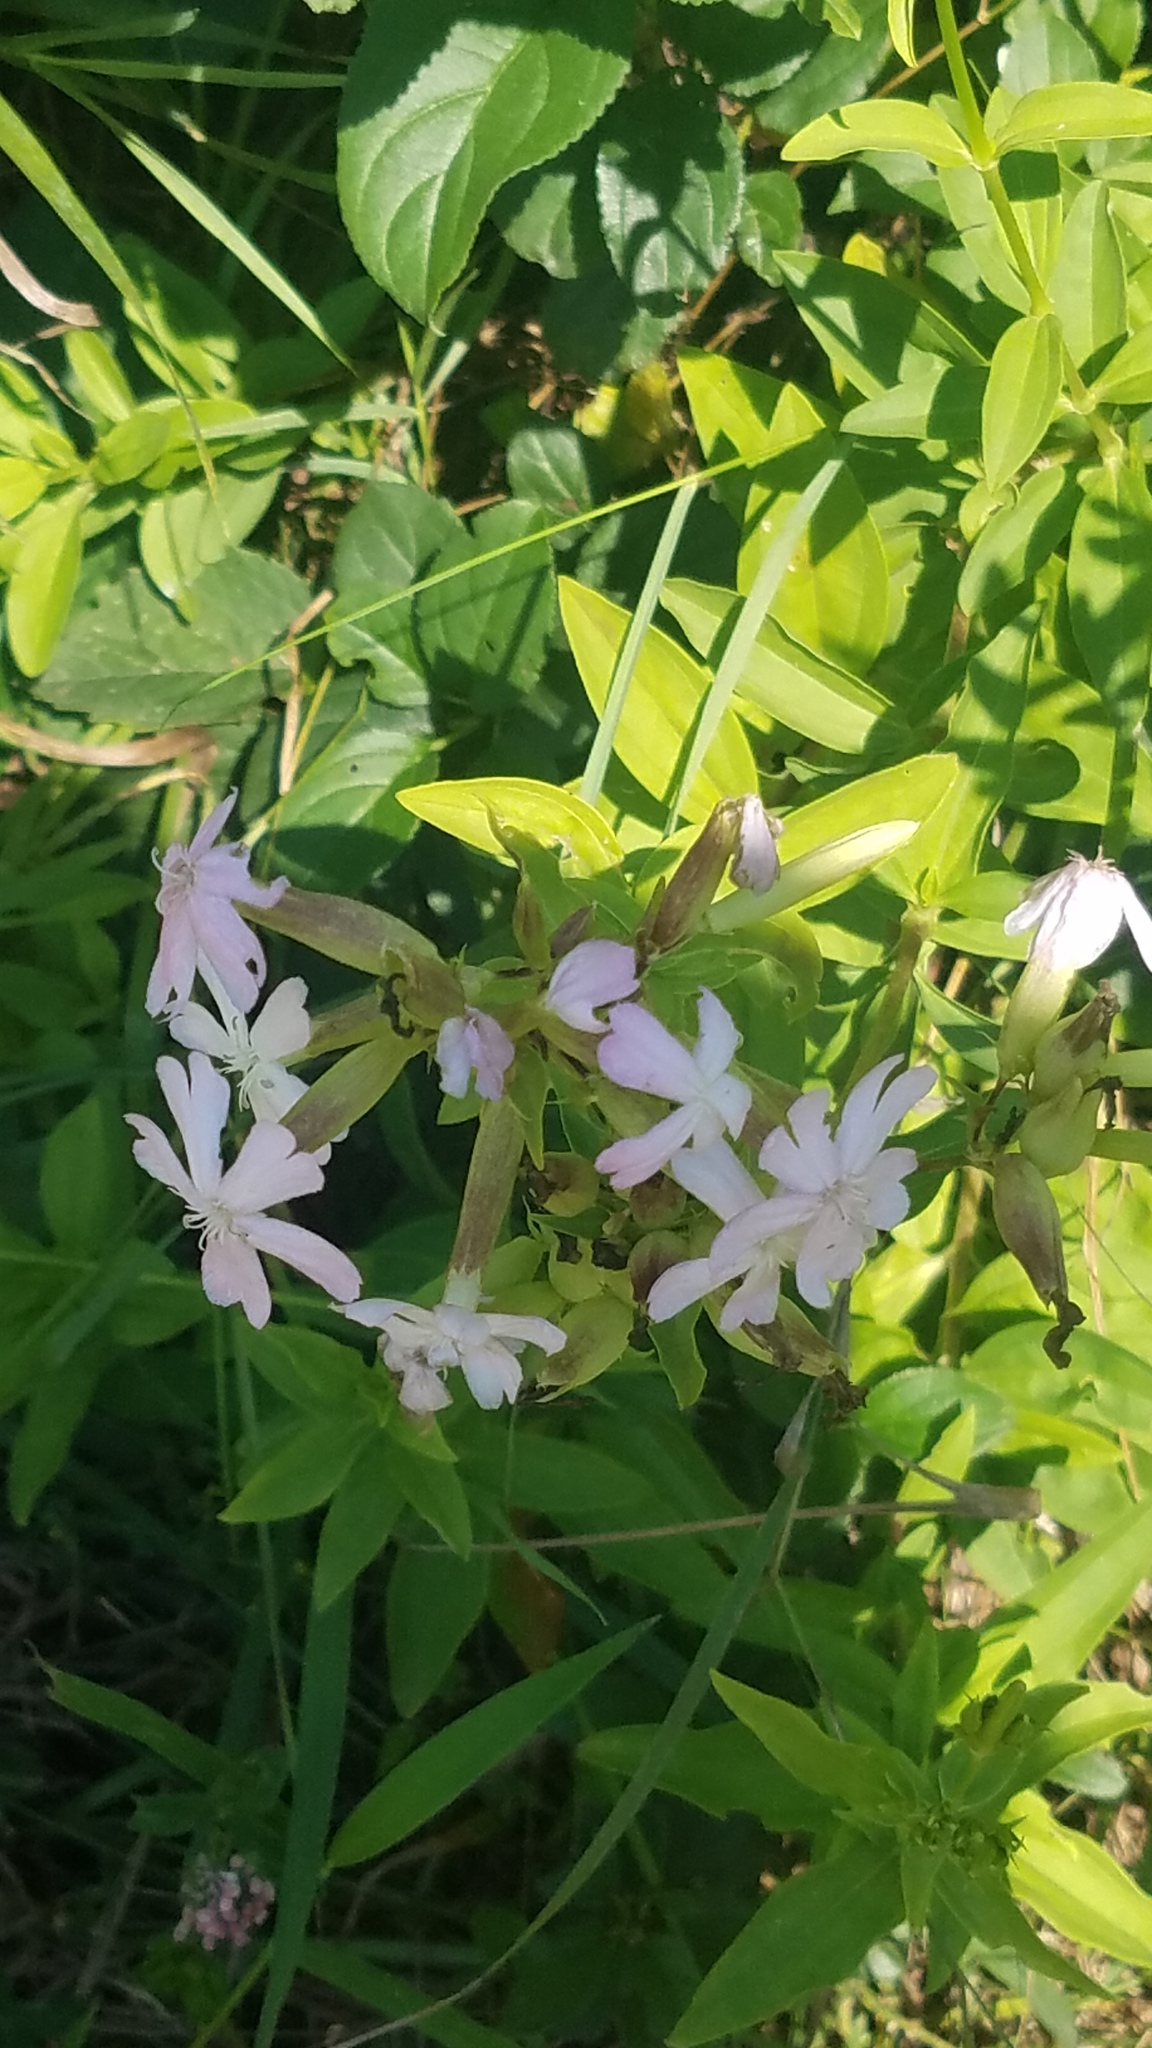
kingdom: Plantae
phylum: Tracheophyta
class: Magnoliopsida
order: Caryophyllales
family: Caryophyllaceae
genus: Saponaria
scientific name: Saponaria officinalis
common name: Soapwort
